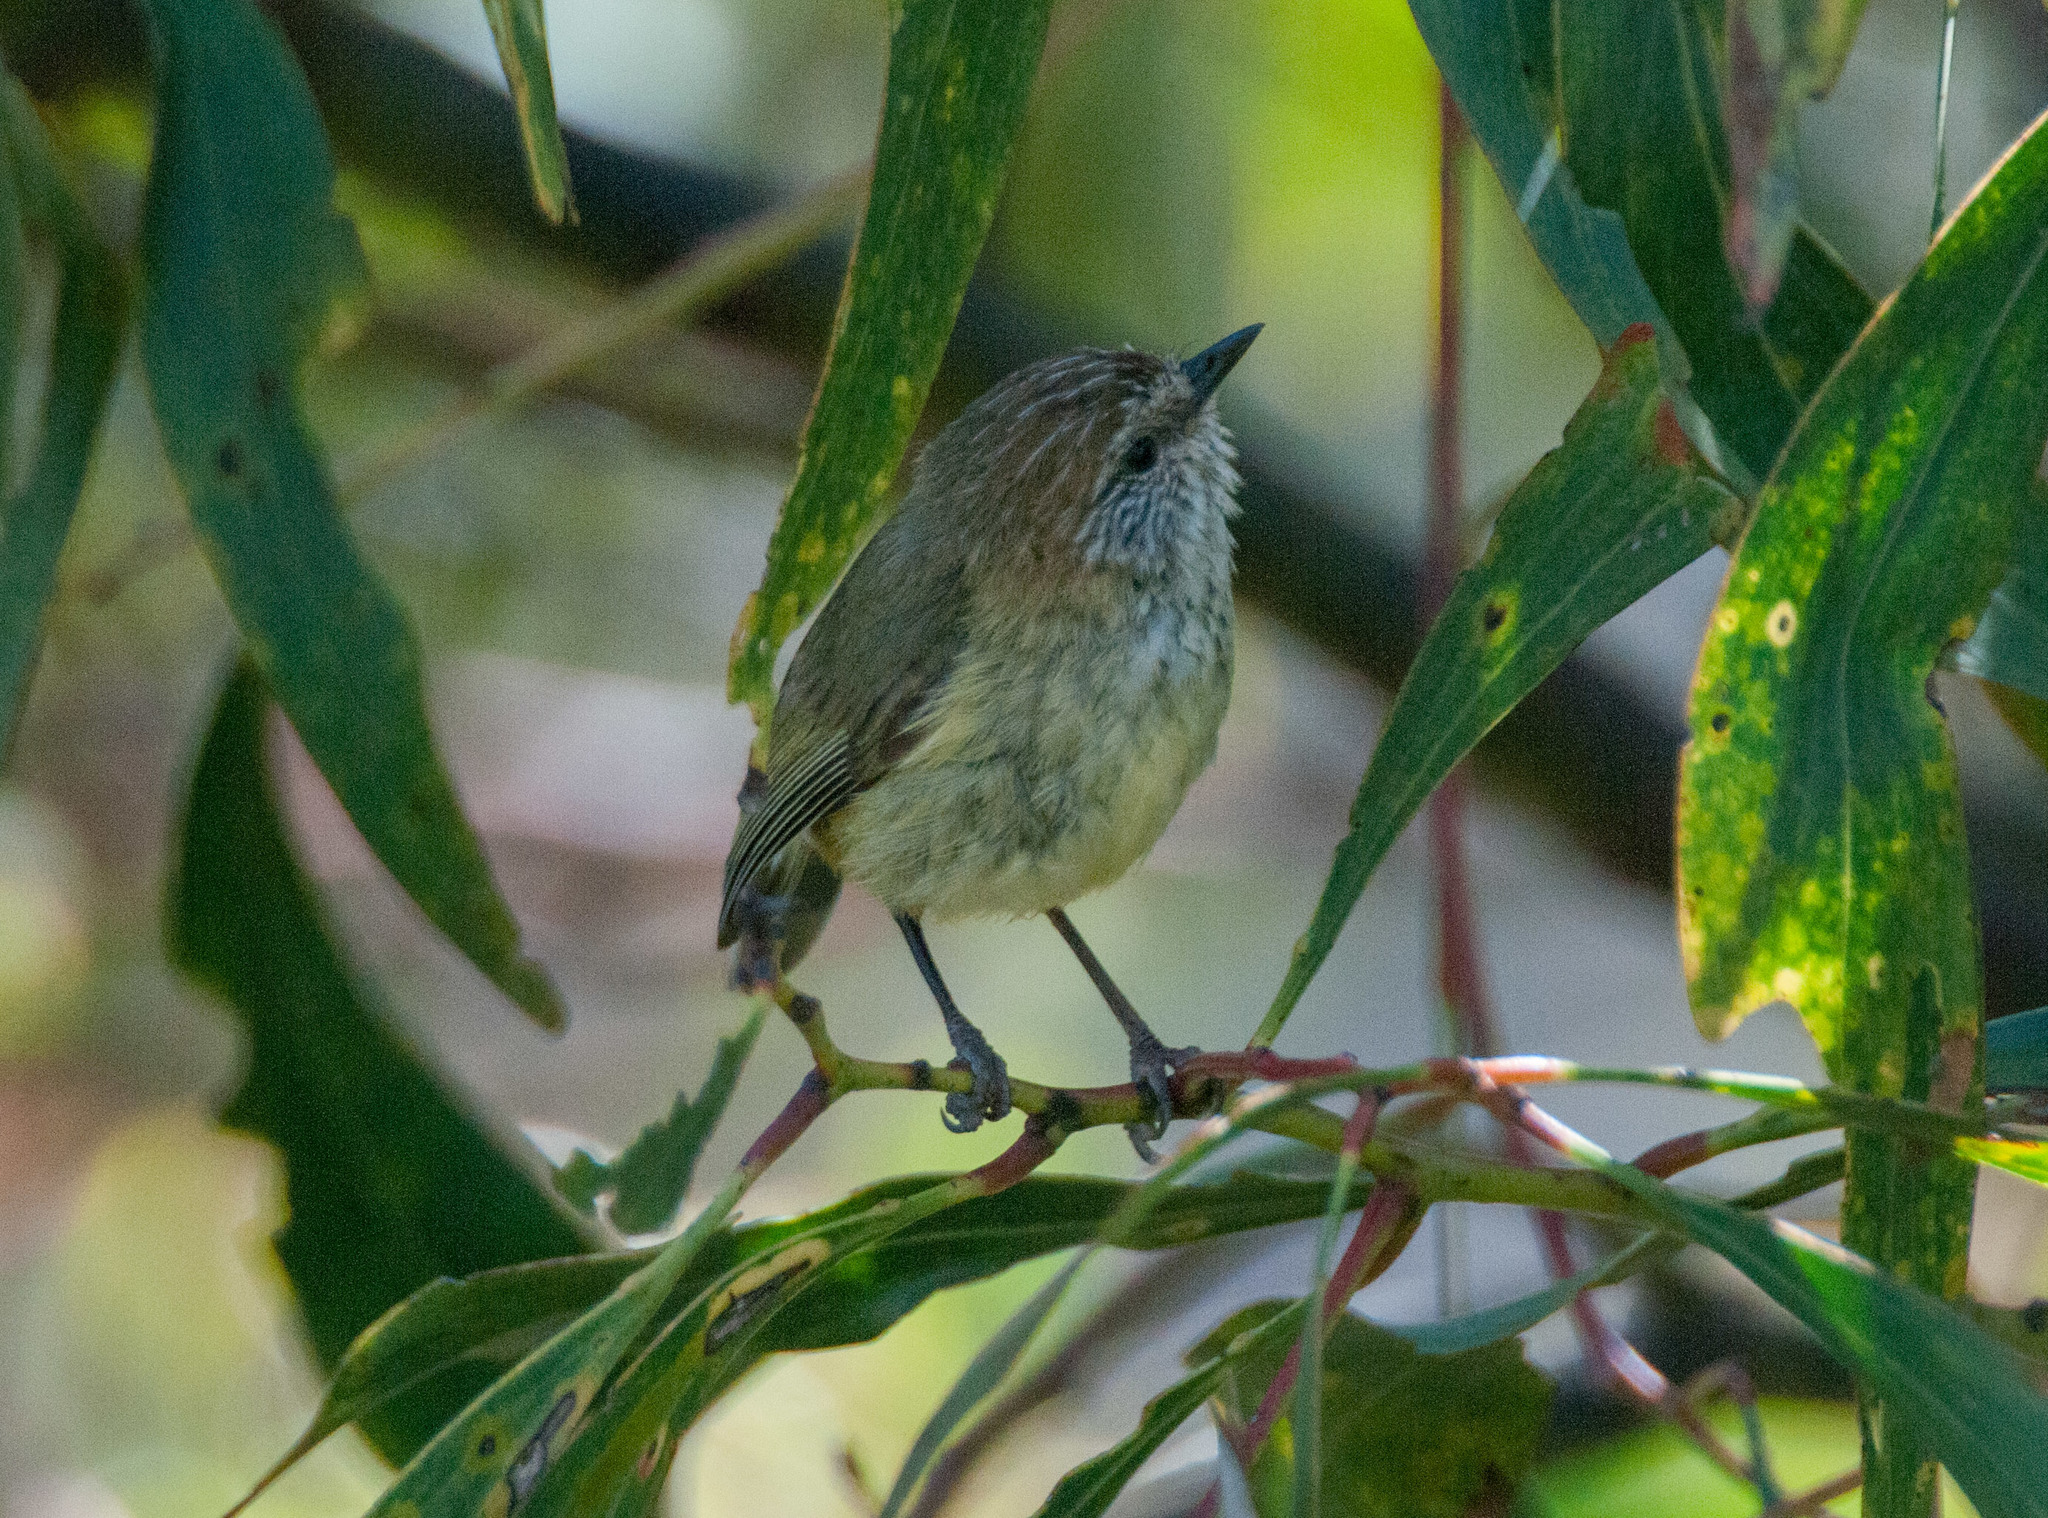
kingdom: Animalia
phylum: Chordata
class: Aves
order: Passeriformes
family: Acanthizidae
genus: Acanthiza
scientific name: Acanthiza lineata
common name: Striated thornbill
